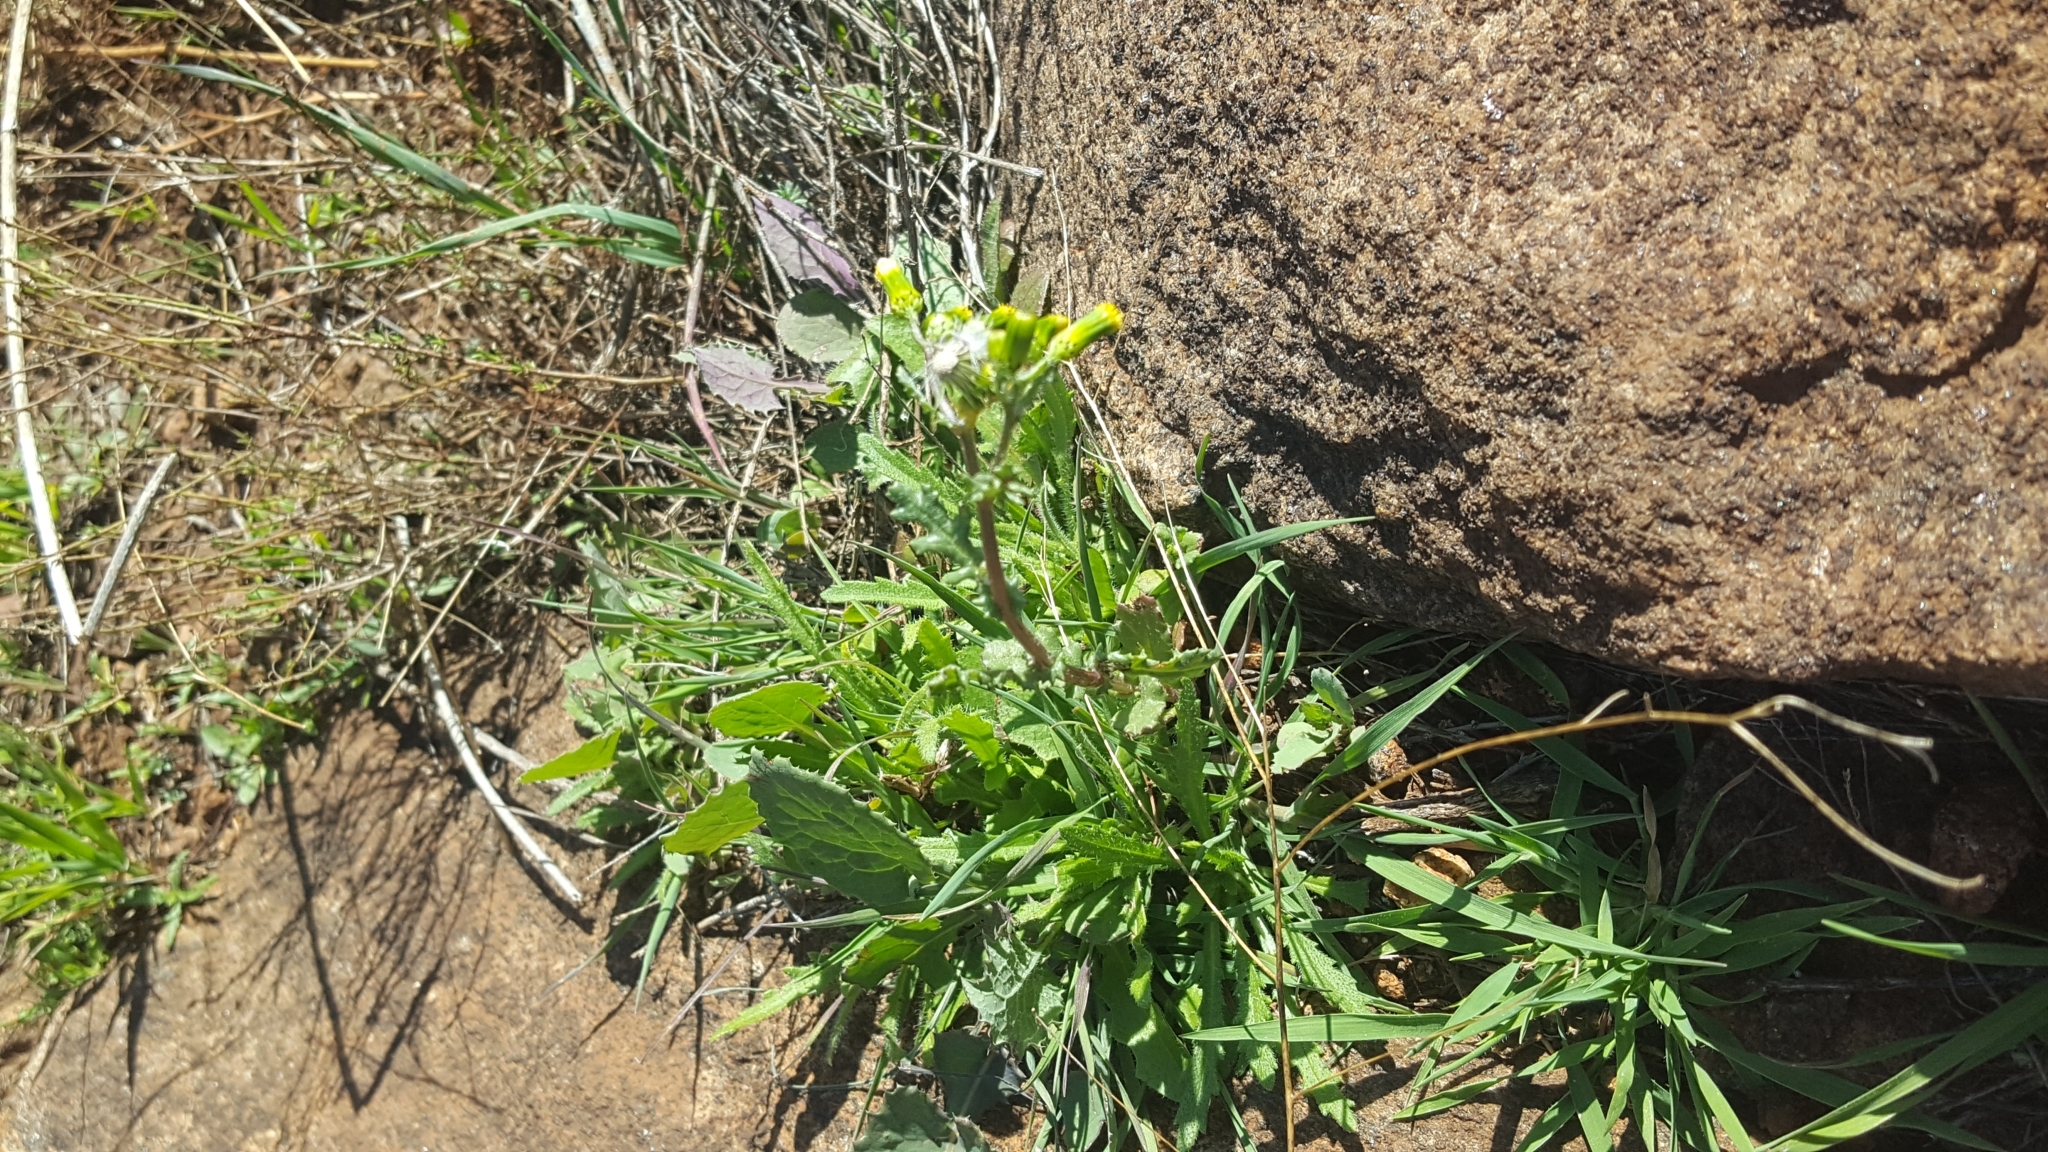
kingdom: Plantae
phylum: Tracheophyta
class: Magnoliopsida
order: Asterales
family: Asteraceae
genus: Senecio
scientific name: Senecio vulgaris
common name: Old-man-in-the-spring
